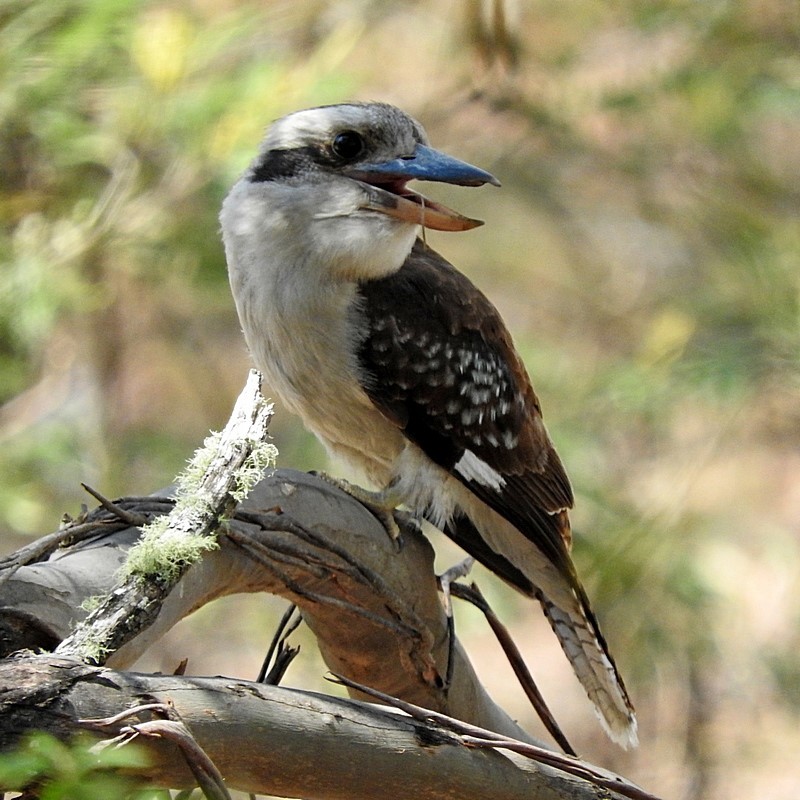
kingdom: Animalia
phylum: Chordata
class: Aves
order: Coraciiformes
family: Alcedinidae
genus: Dacelo
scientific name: Dacelo novaeguineae
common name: Laughing kookaburra
